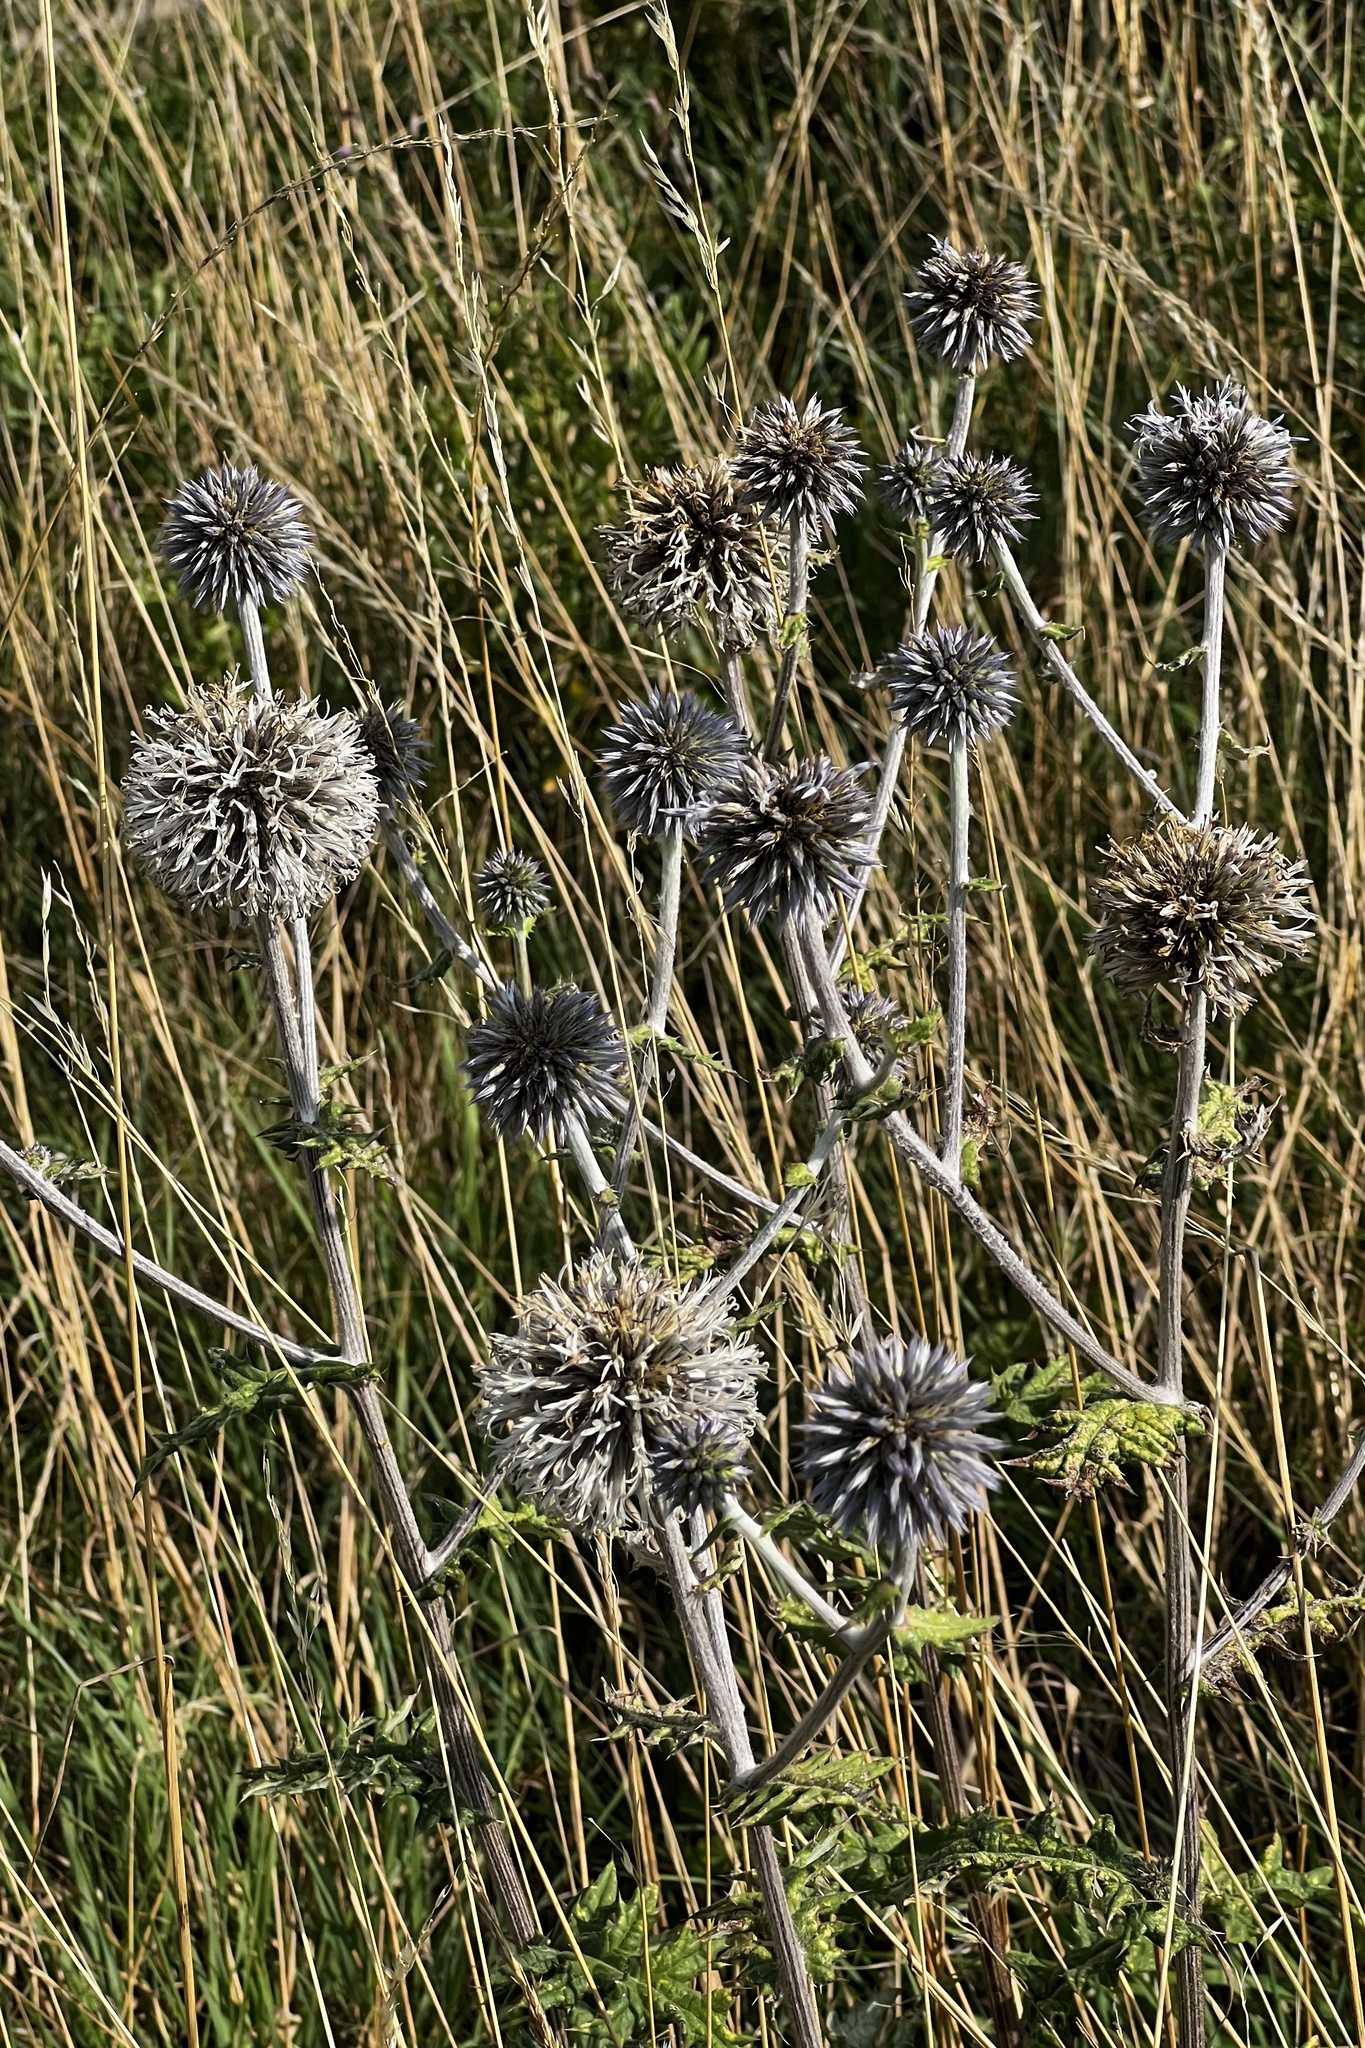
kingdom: Plantae
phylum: Tracheophyta
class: Magnoliopsida
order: Asterales
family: Asteraceae
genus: Echinops
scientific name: Echinops sphaerocephalus
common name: Glandular globe-thistle
